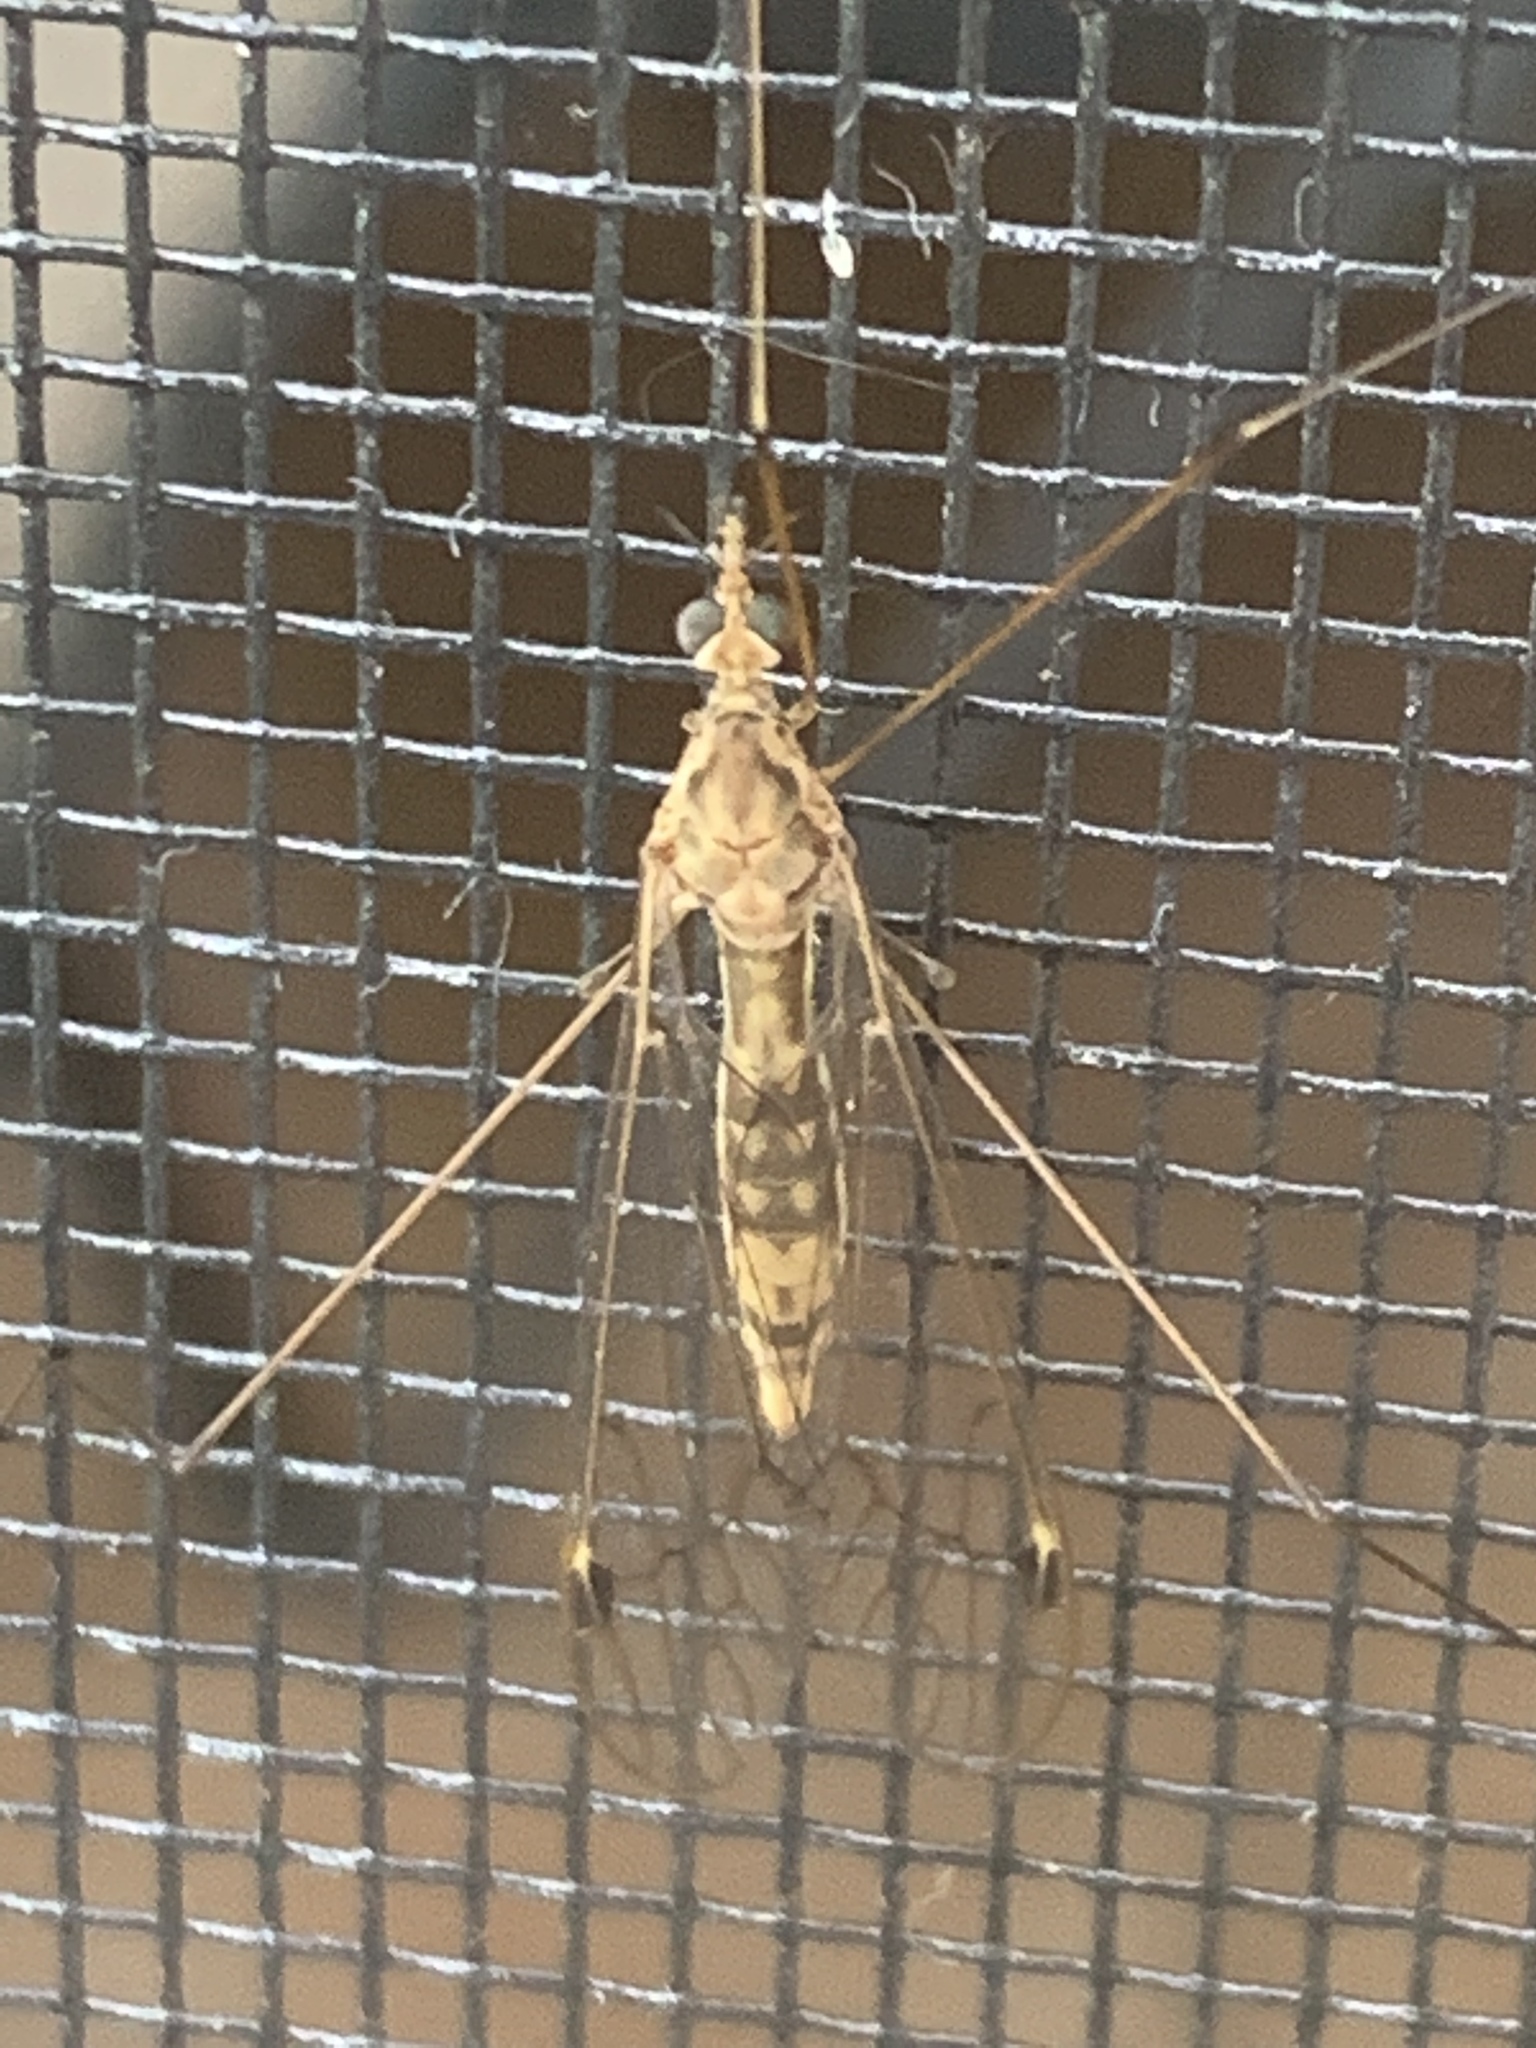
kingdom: Animalia
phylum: Arthropoda
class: Insecta
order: Diptera
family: Tipulidae
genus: Maekistocera
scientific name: Maekistocera longipennis
